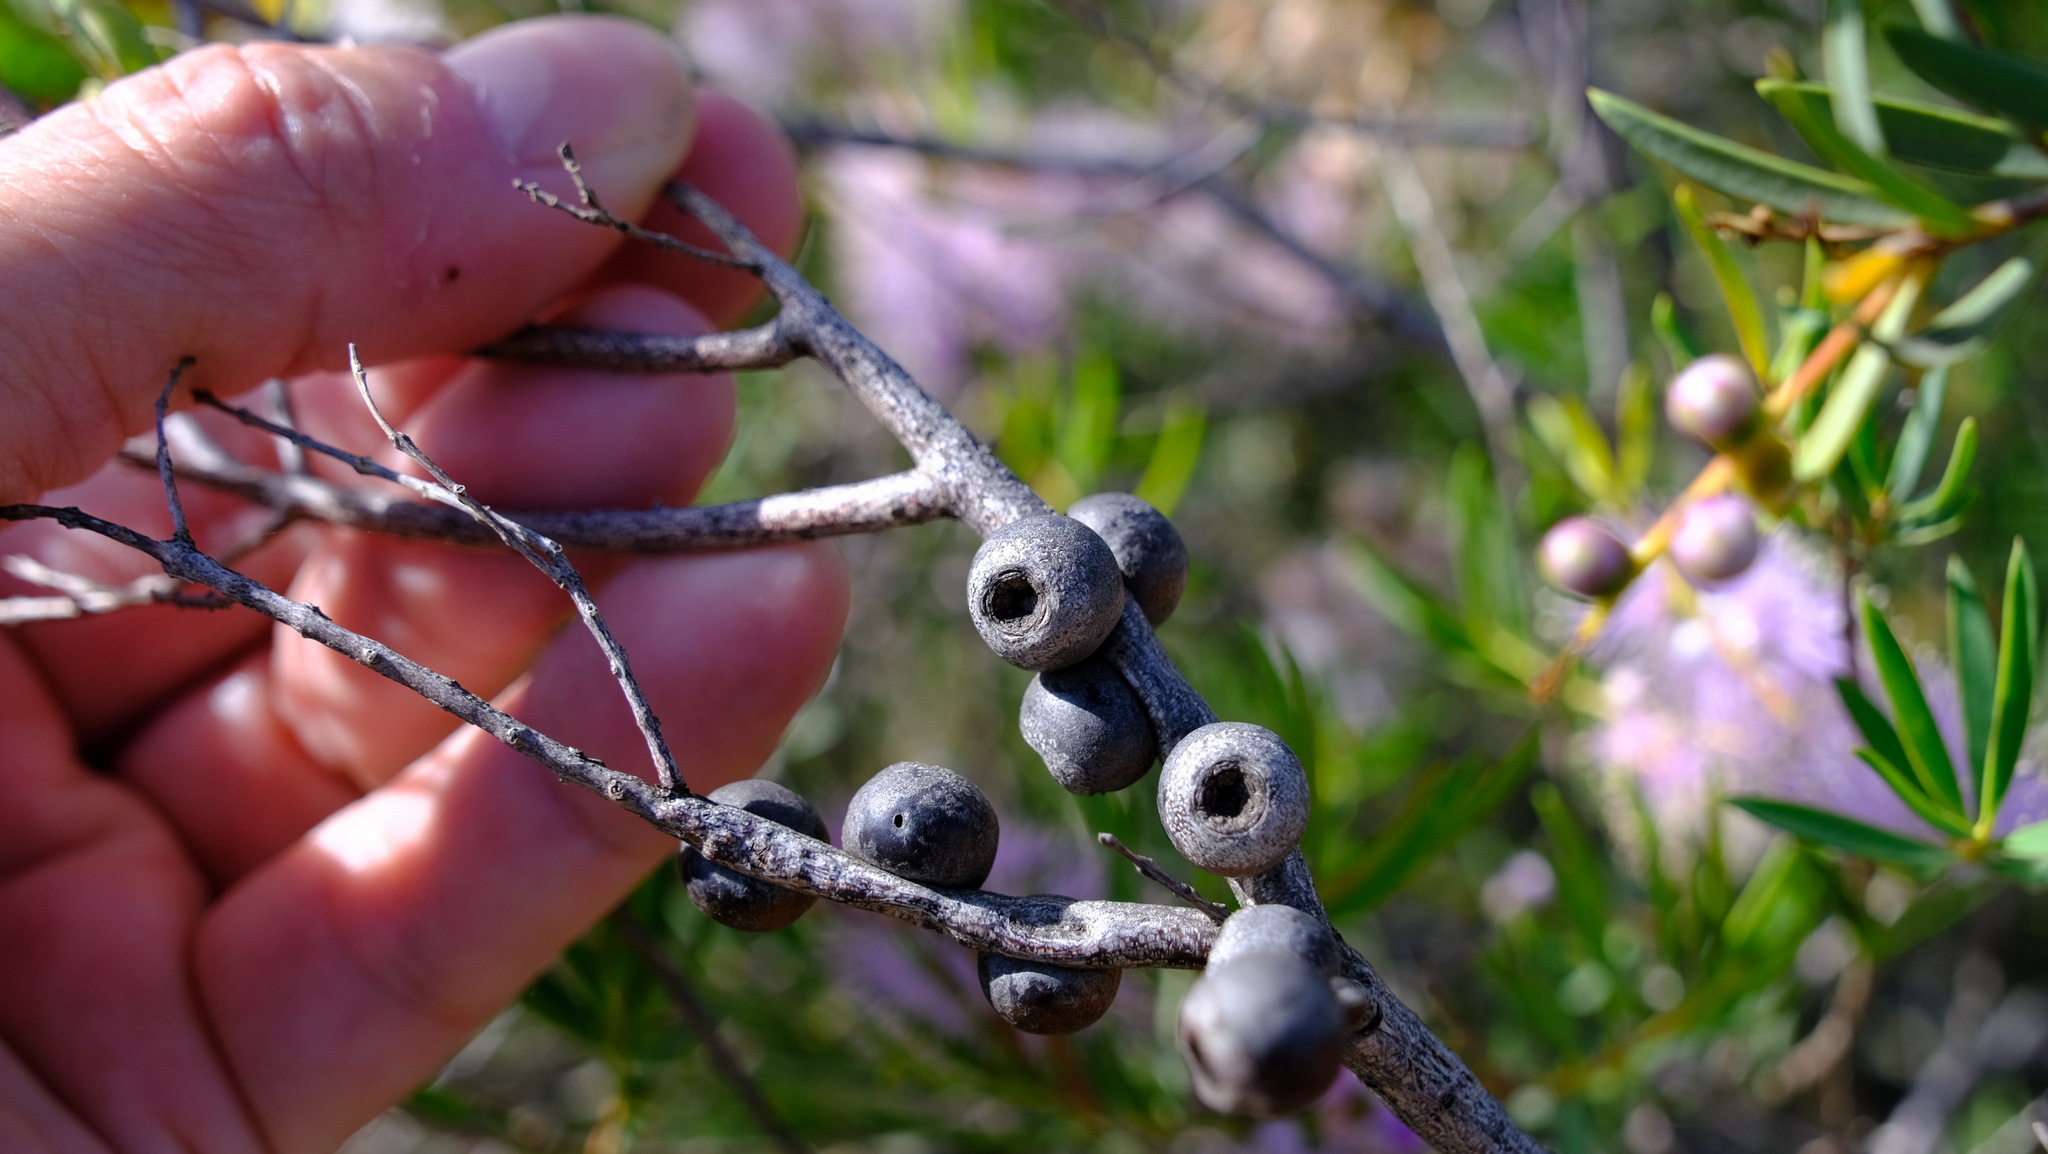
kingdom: Plantae
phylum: Tracheophyta
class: Magnoliopsida
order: Myrtales
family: Myrtaceae
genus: Melaleuca
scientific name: Melaleuca radula
